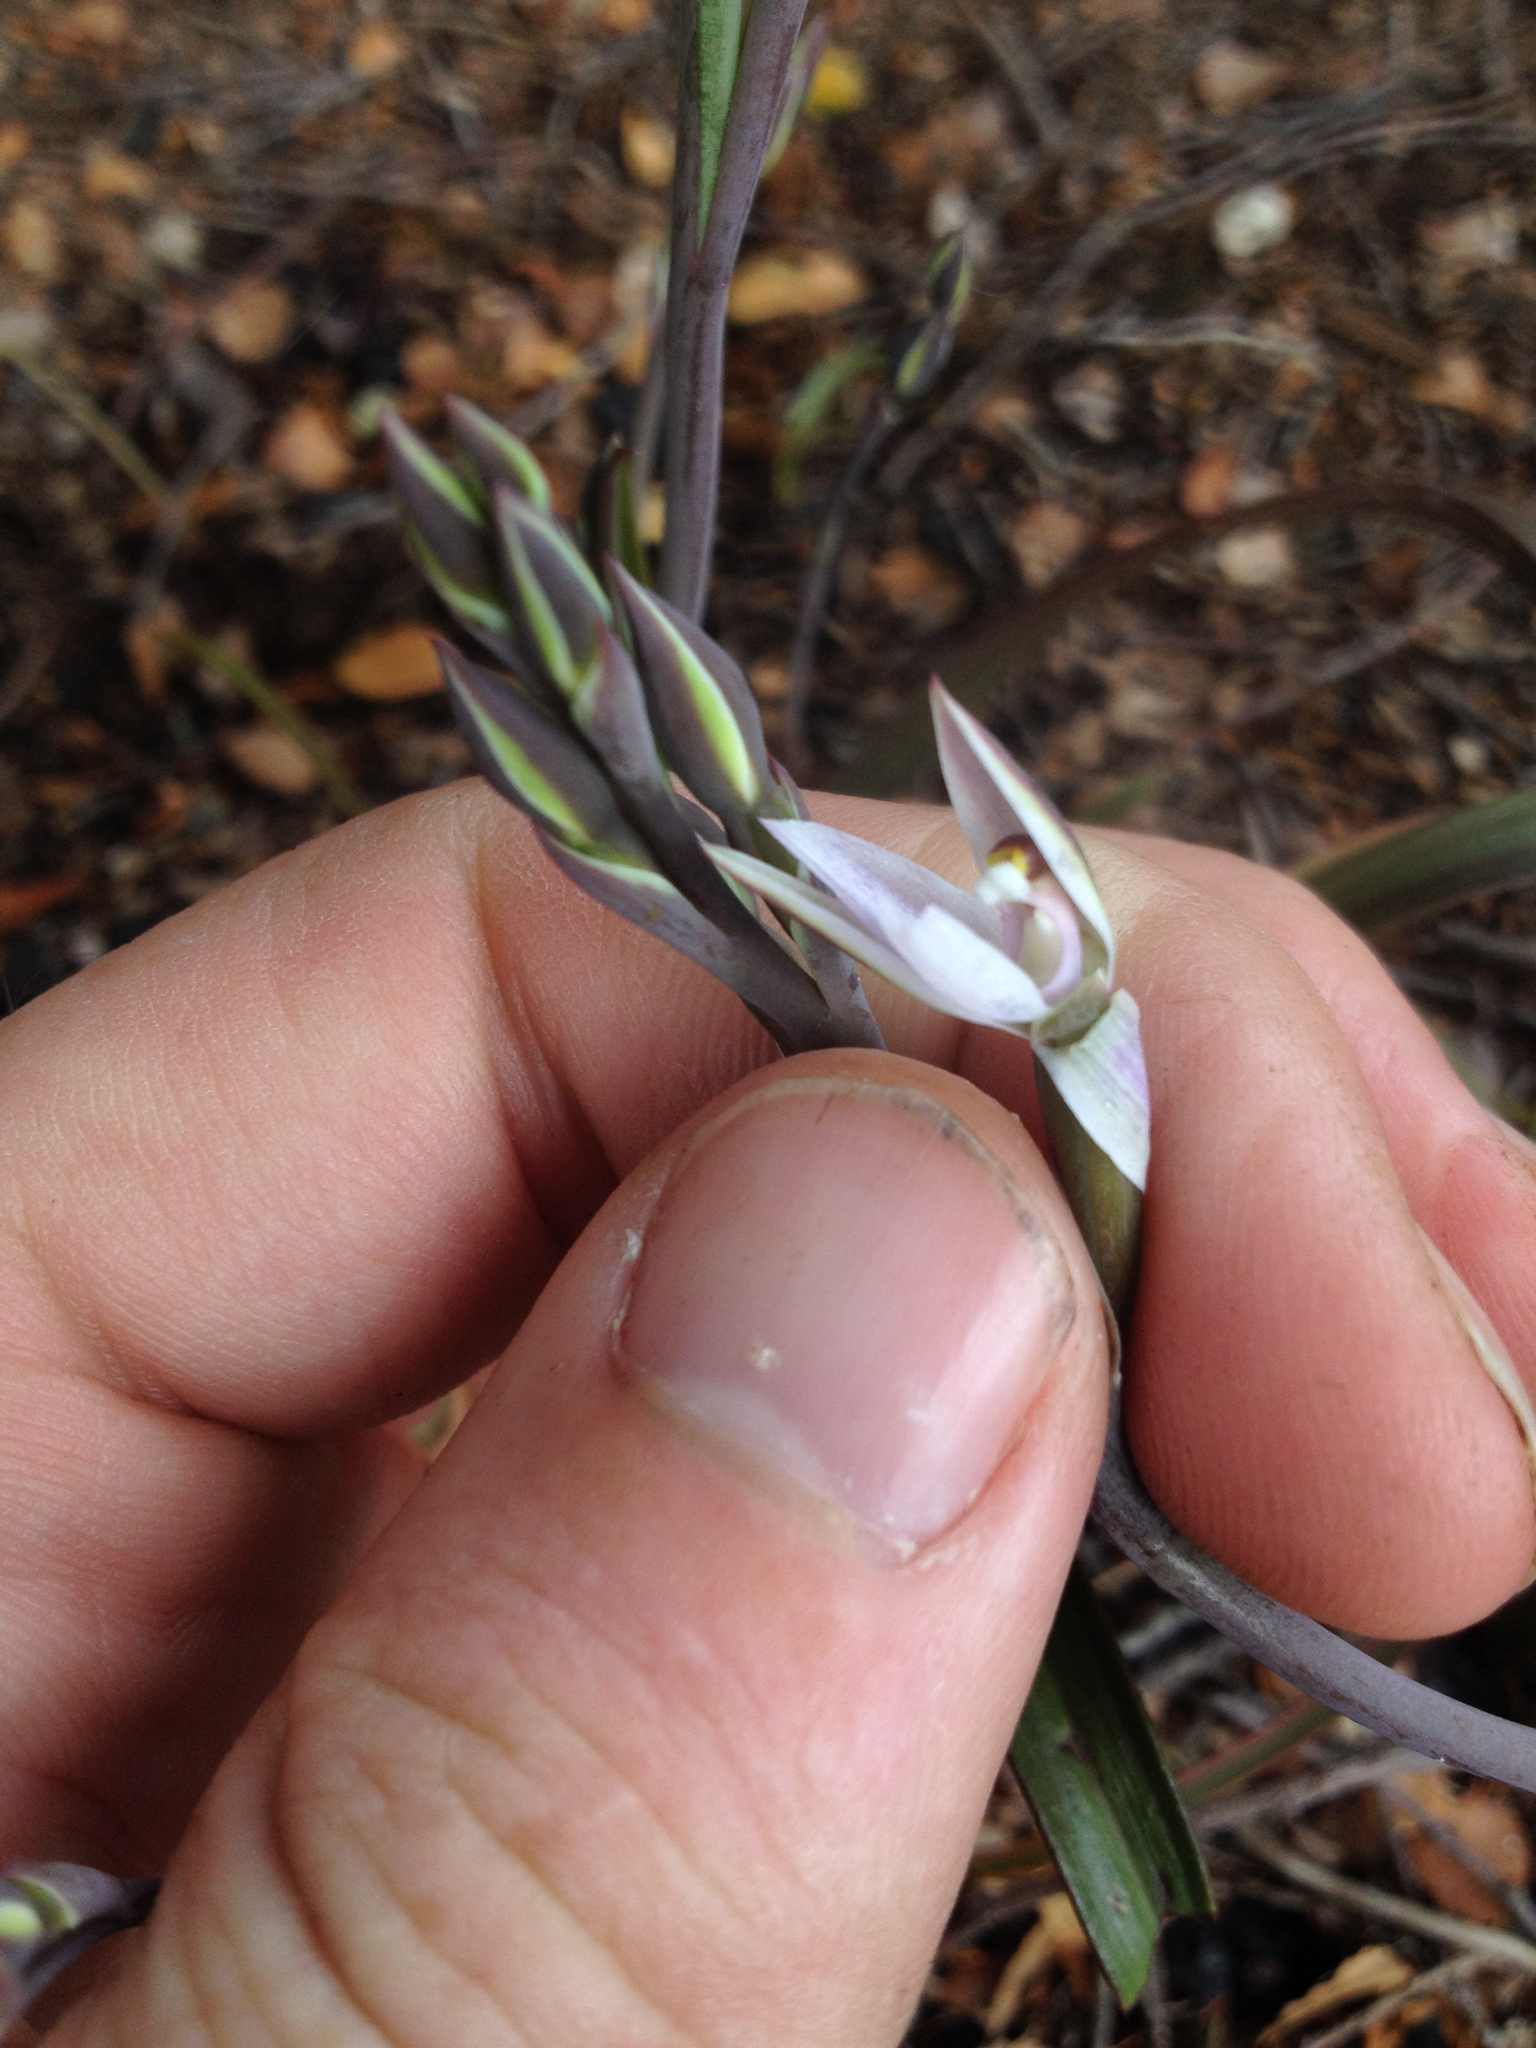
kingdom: Plantae
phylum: Tracheophyta
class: Liliopsida
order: Asparagales
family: Orchidaceae
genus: Thelymitra
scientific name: Thelymitra longifolia
